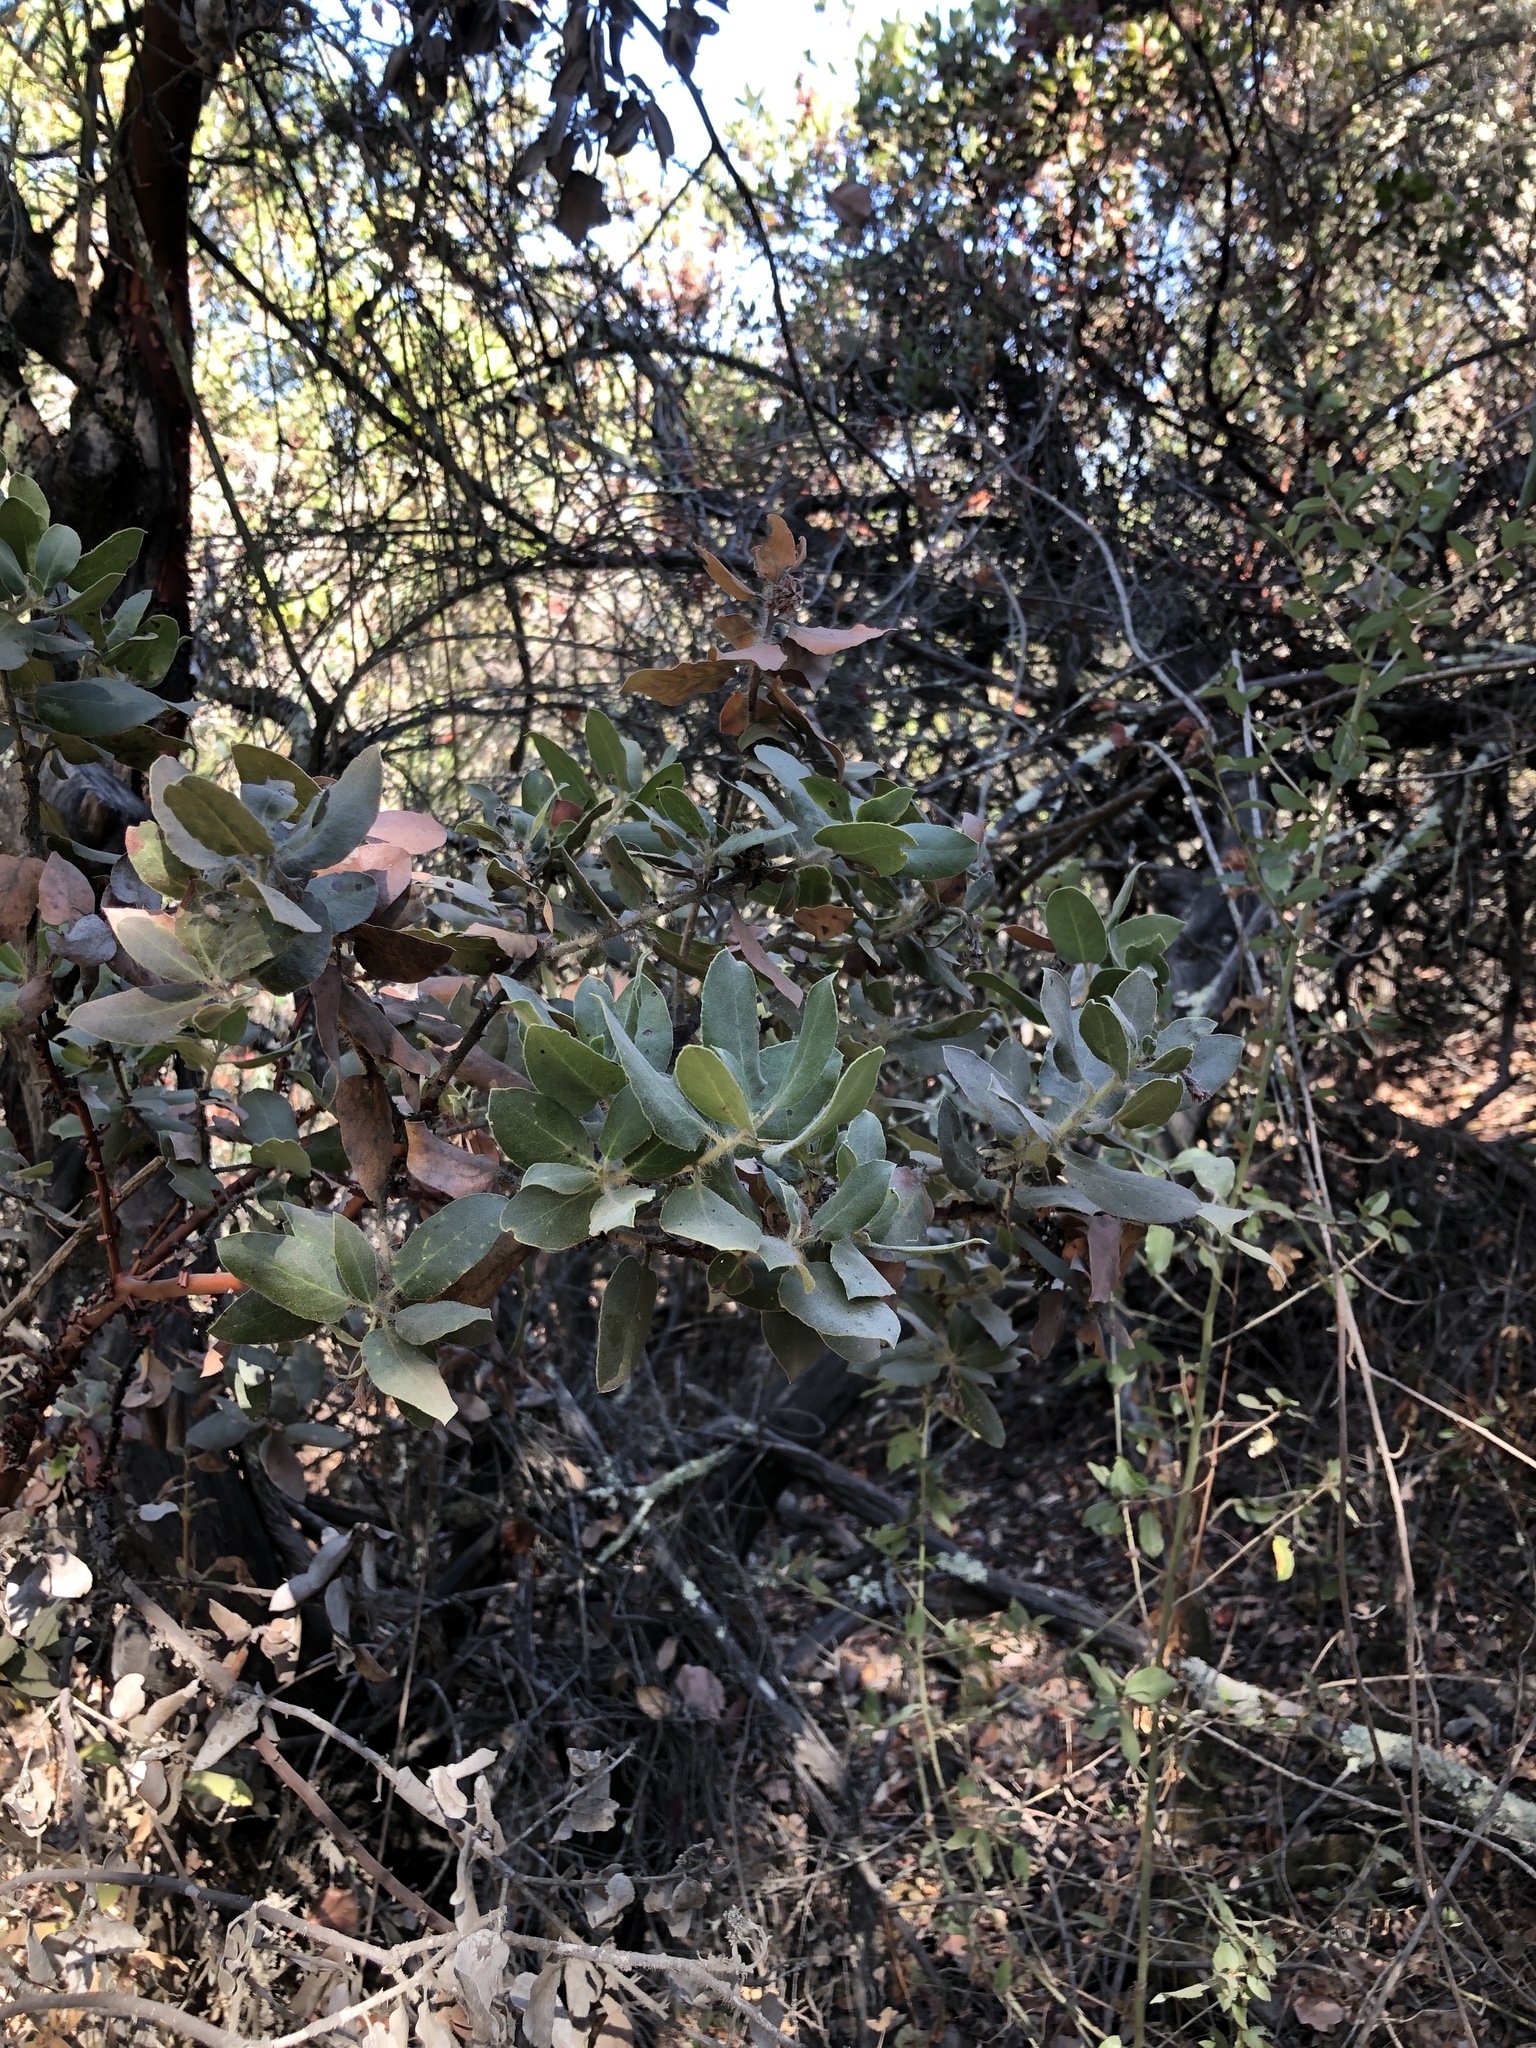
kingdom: Plantae
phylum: Tracheophyta
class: Magnoliopsida
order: Ericales
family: Ericaceae
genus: Arctostaphylos
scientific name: Arctostaphylos crustacea
